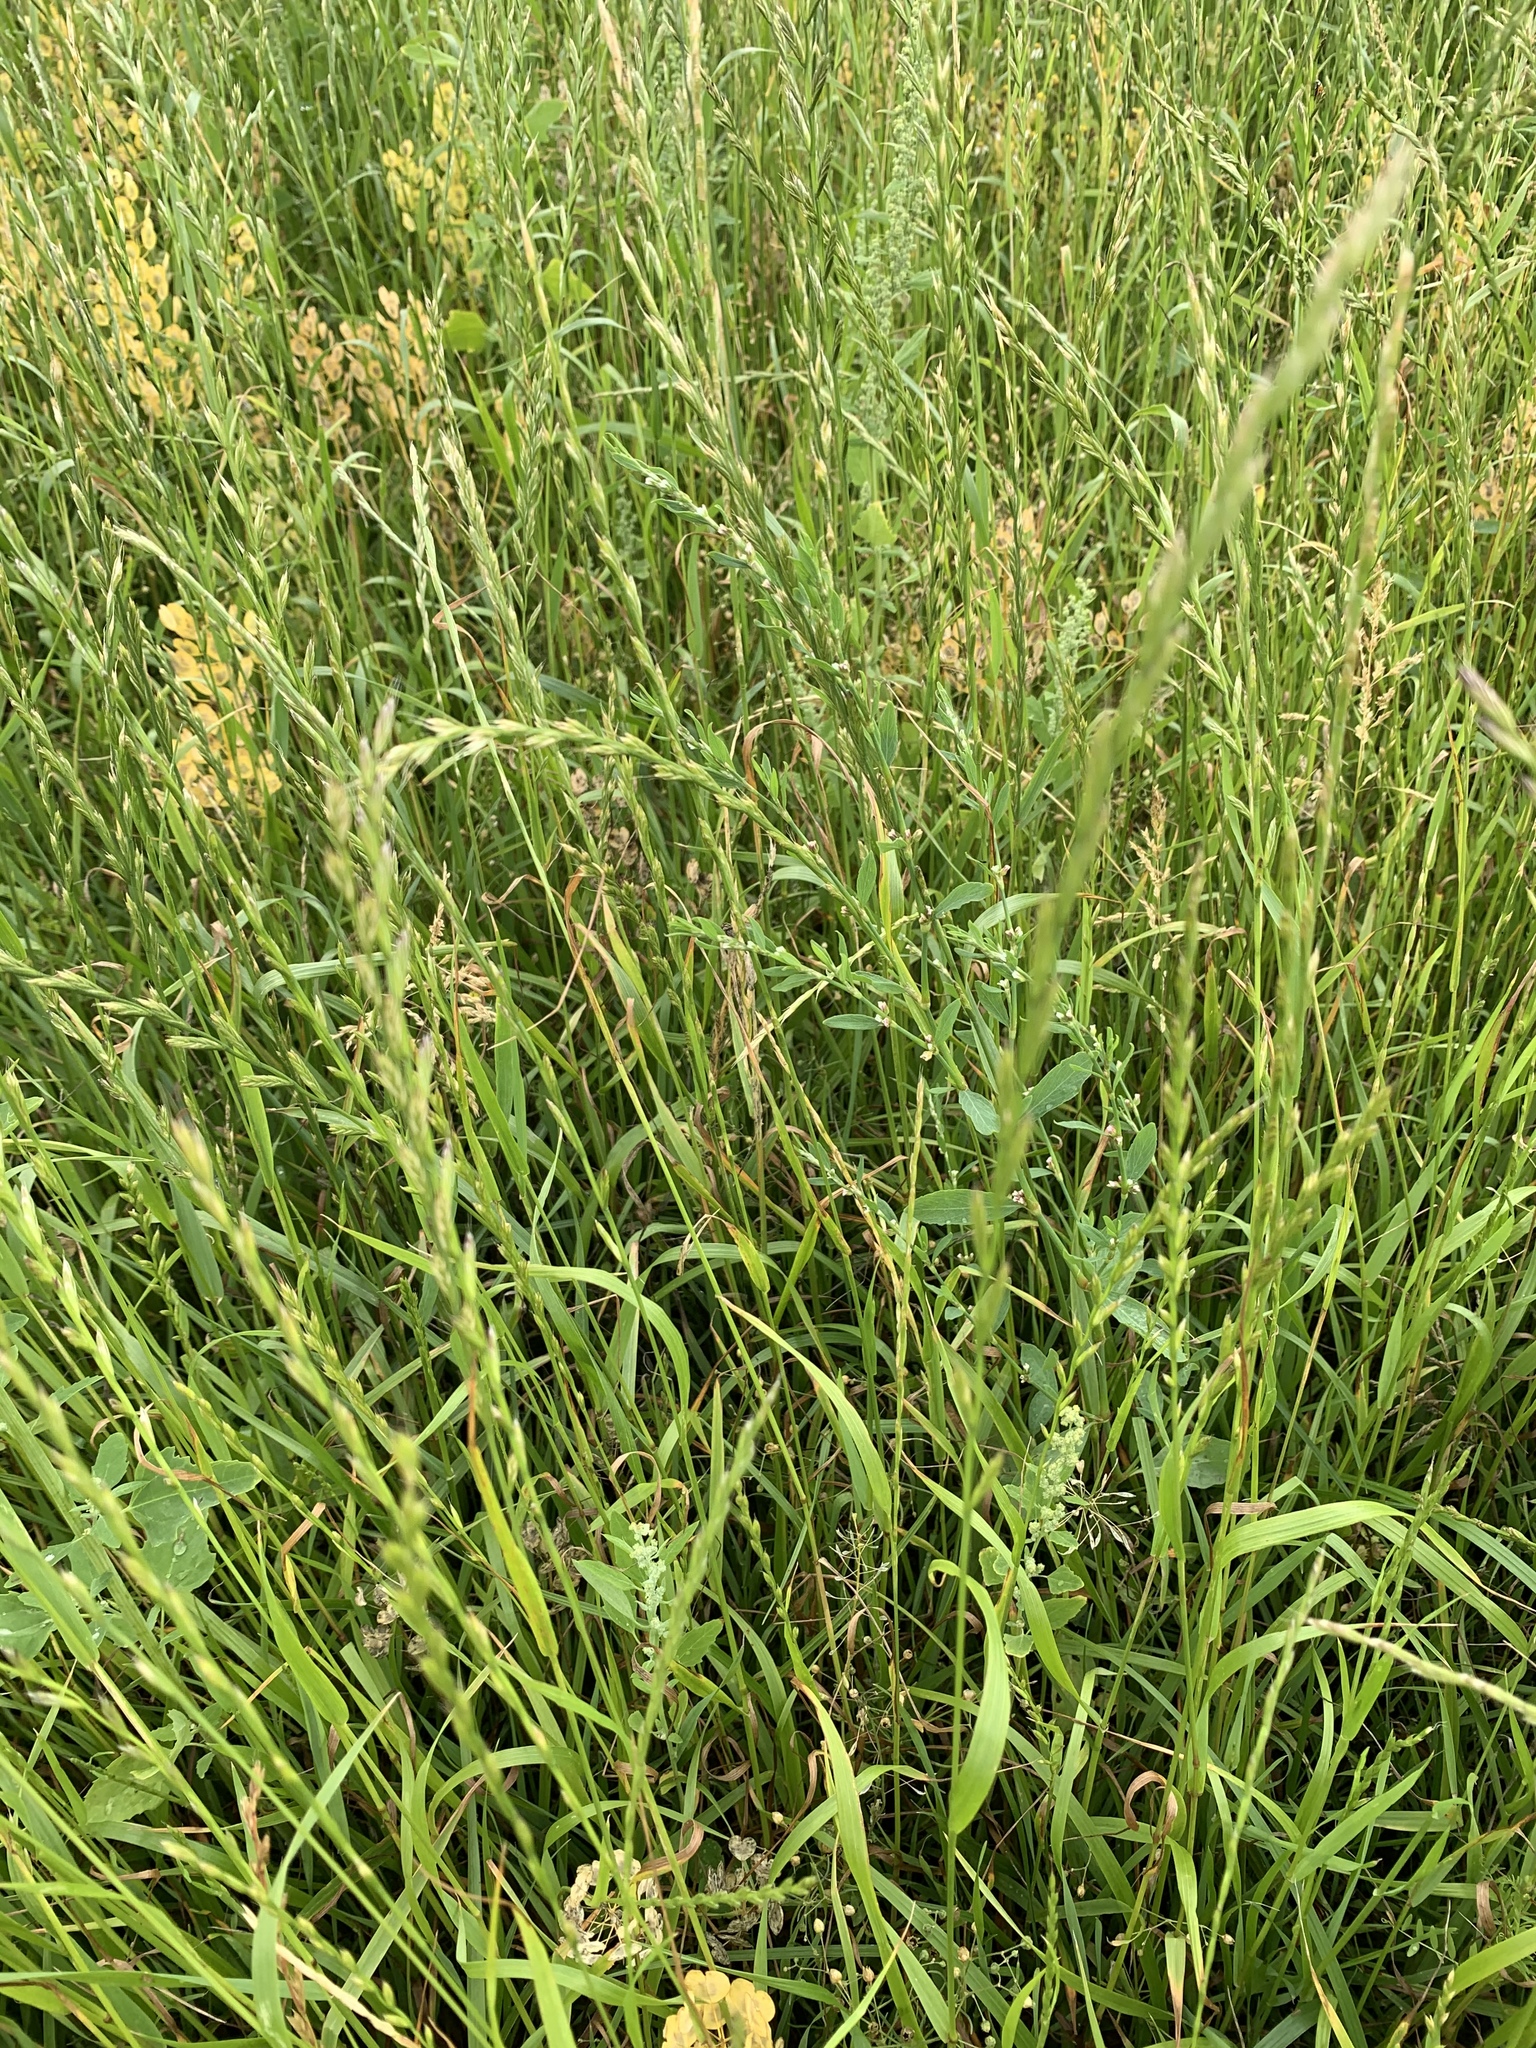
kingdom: Plantae
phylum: Tracheophyta
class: Liliopsida
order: Poales
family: Poaceae
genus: Lolium
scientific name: Lolium perenne
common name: Perennial ryegrass
